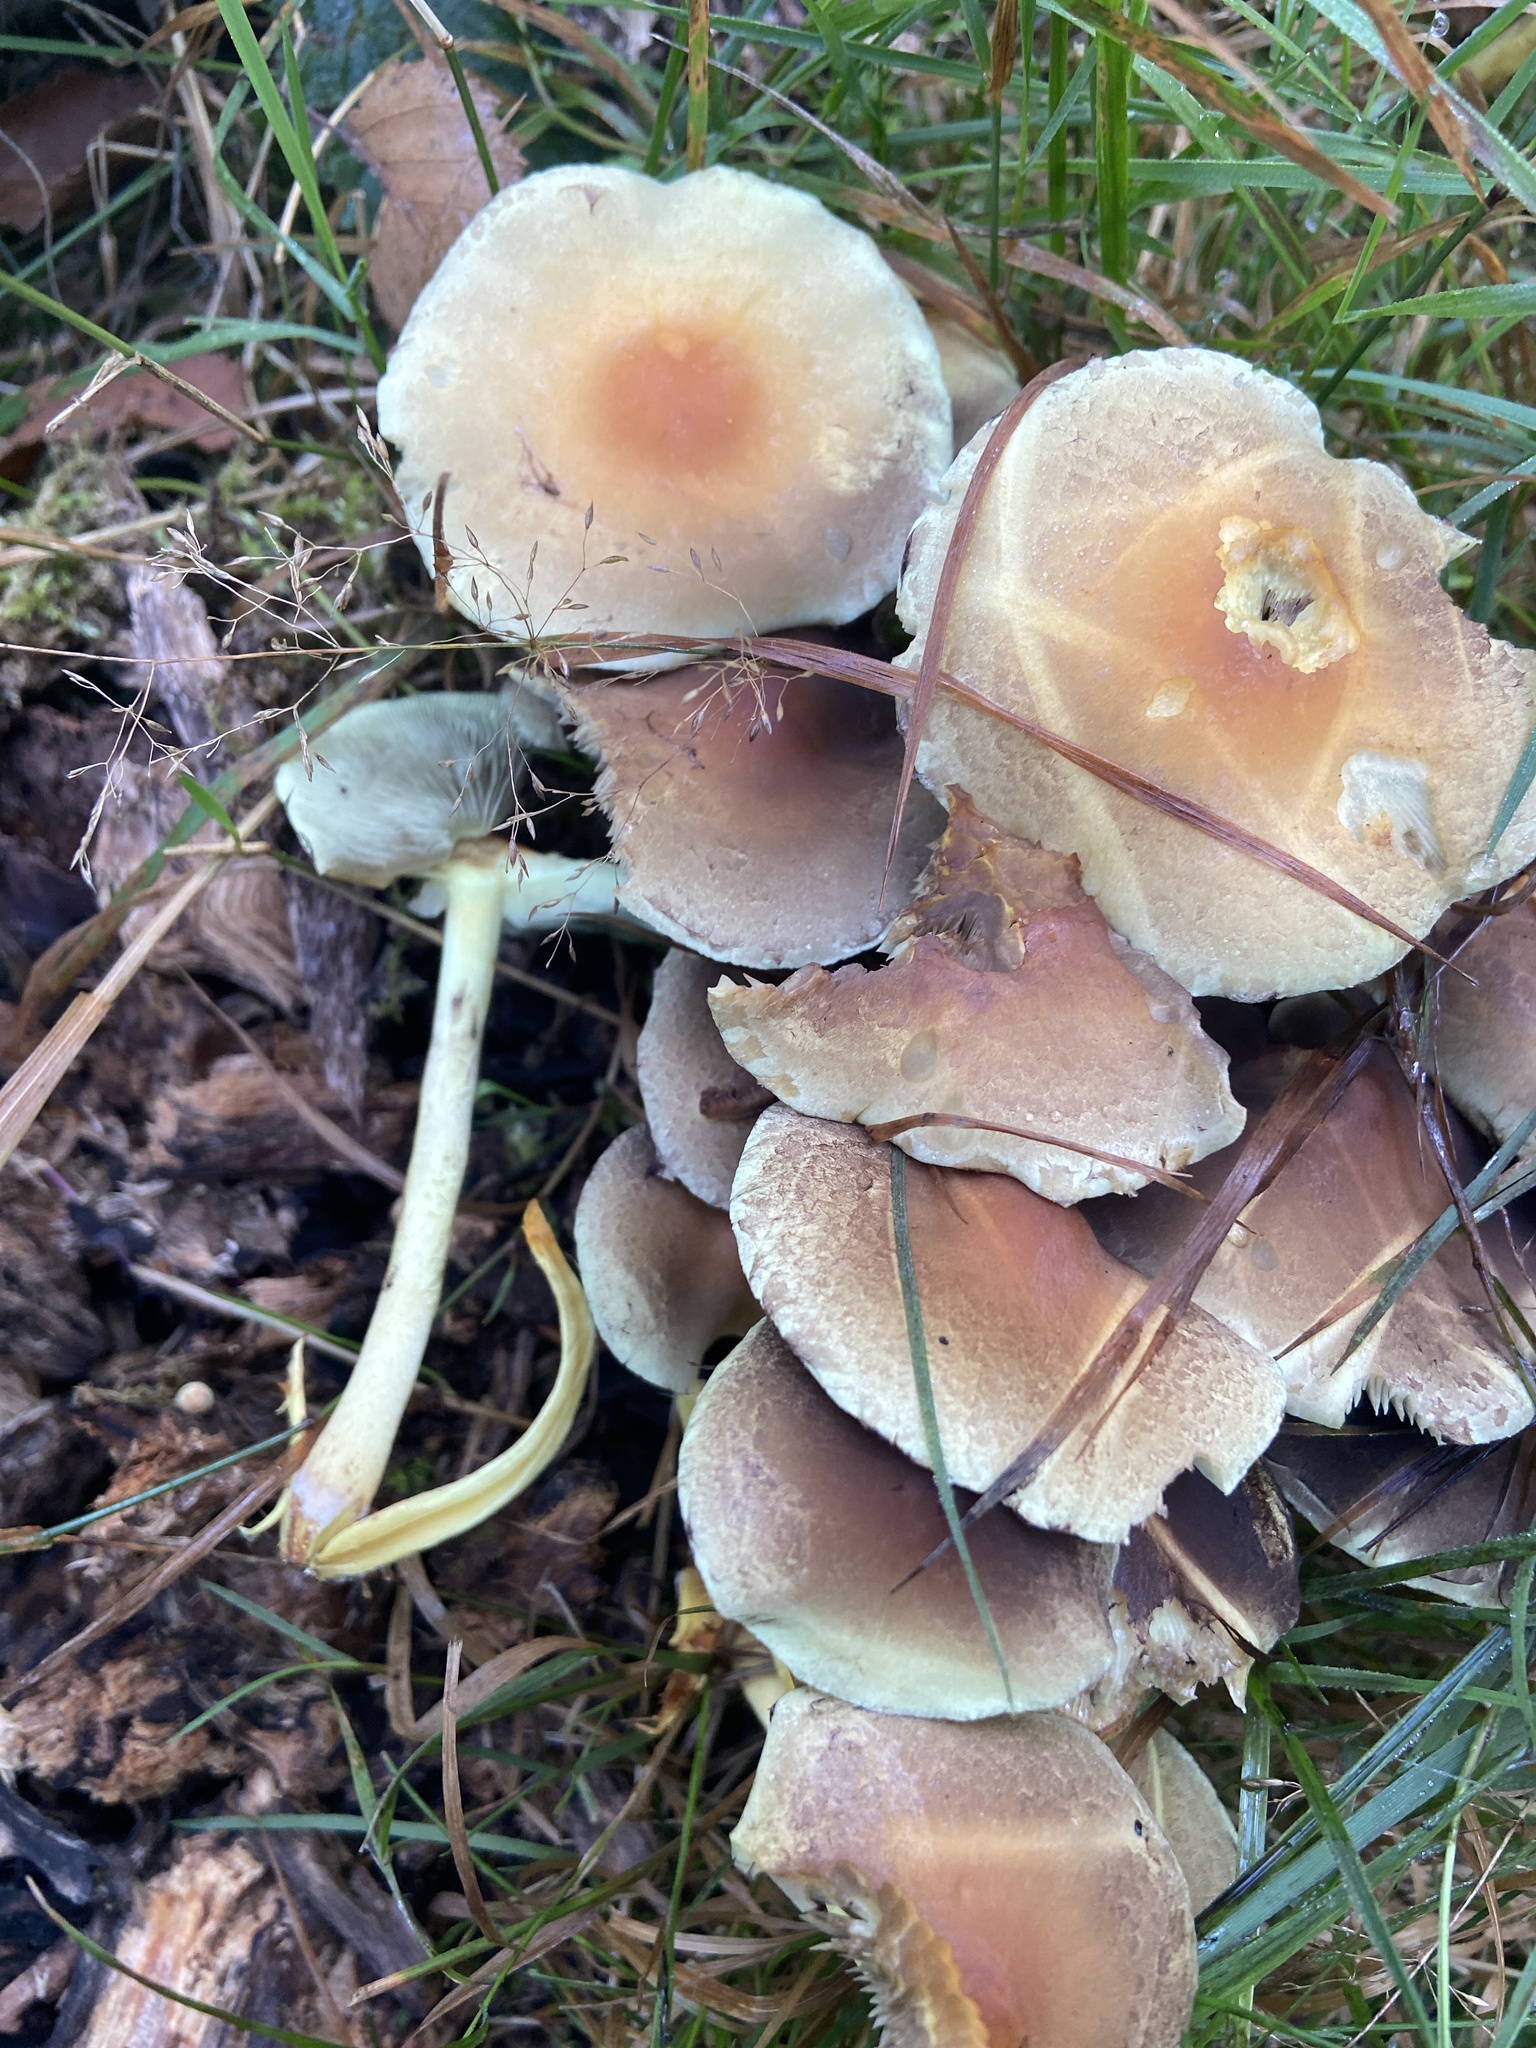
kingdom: Fungi
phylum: Basidiomycota
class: Agaricomycetes
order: Agaricales
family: Strophariaceae
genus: Hypholoma
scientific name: Hypholoma fasciculare
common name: Sulphur tuft
